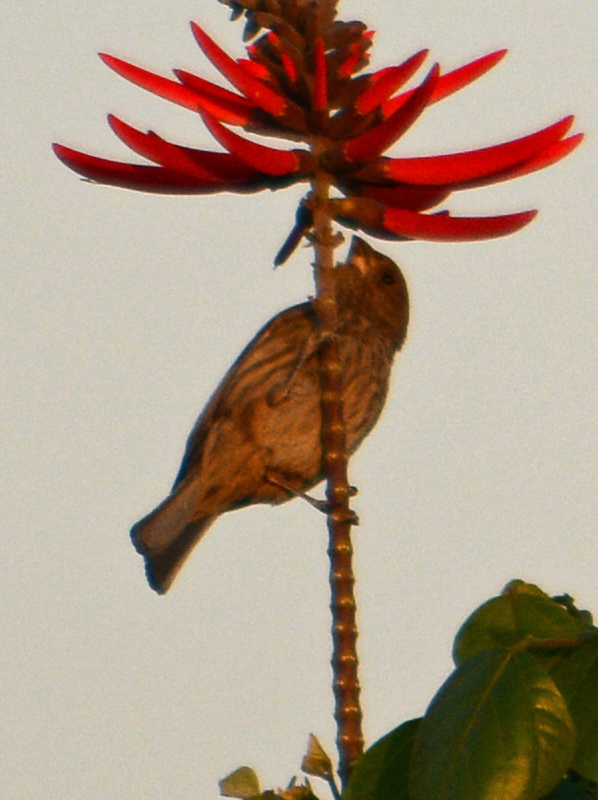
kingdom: Animalia
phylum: Chordata
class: Aves
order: Passeriformes
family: Fringillidae
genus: Haemorhous
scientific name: Haemorhous mexicanus
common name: House finch
